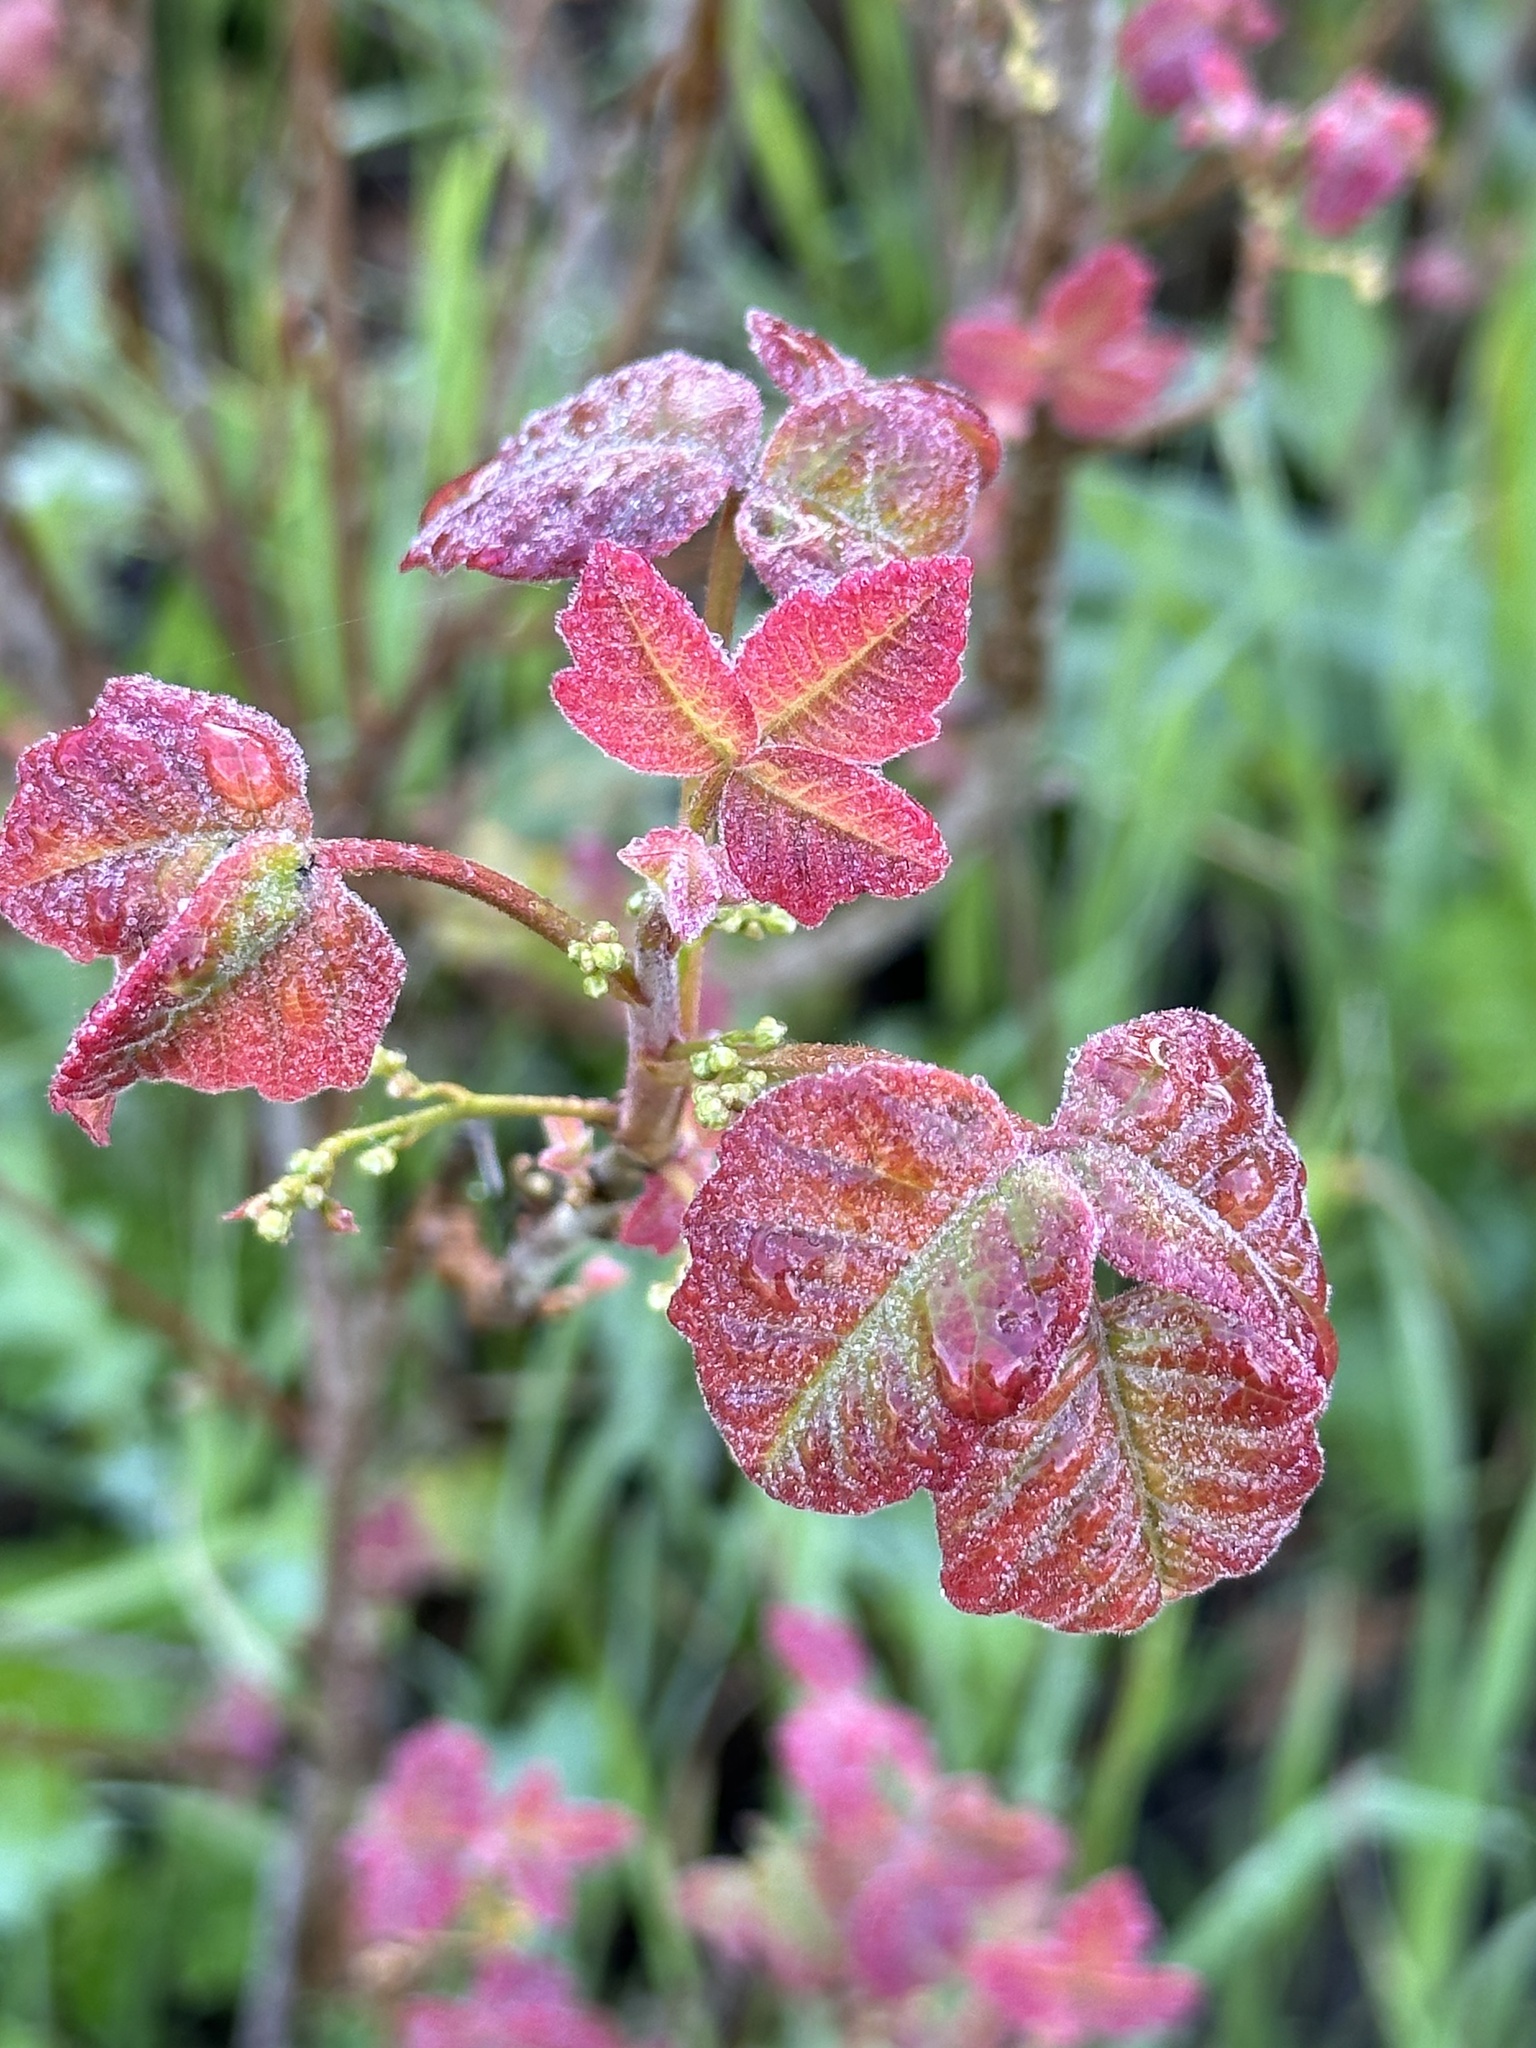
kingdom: Plantae
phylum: Tracheophyta
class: Magnoliopsida
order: Sapindales
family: Anacardiaceae
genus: Toxicodendron
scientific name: Toxicodendron diversilobum
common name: Pacific poison-oak
